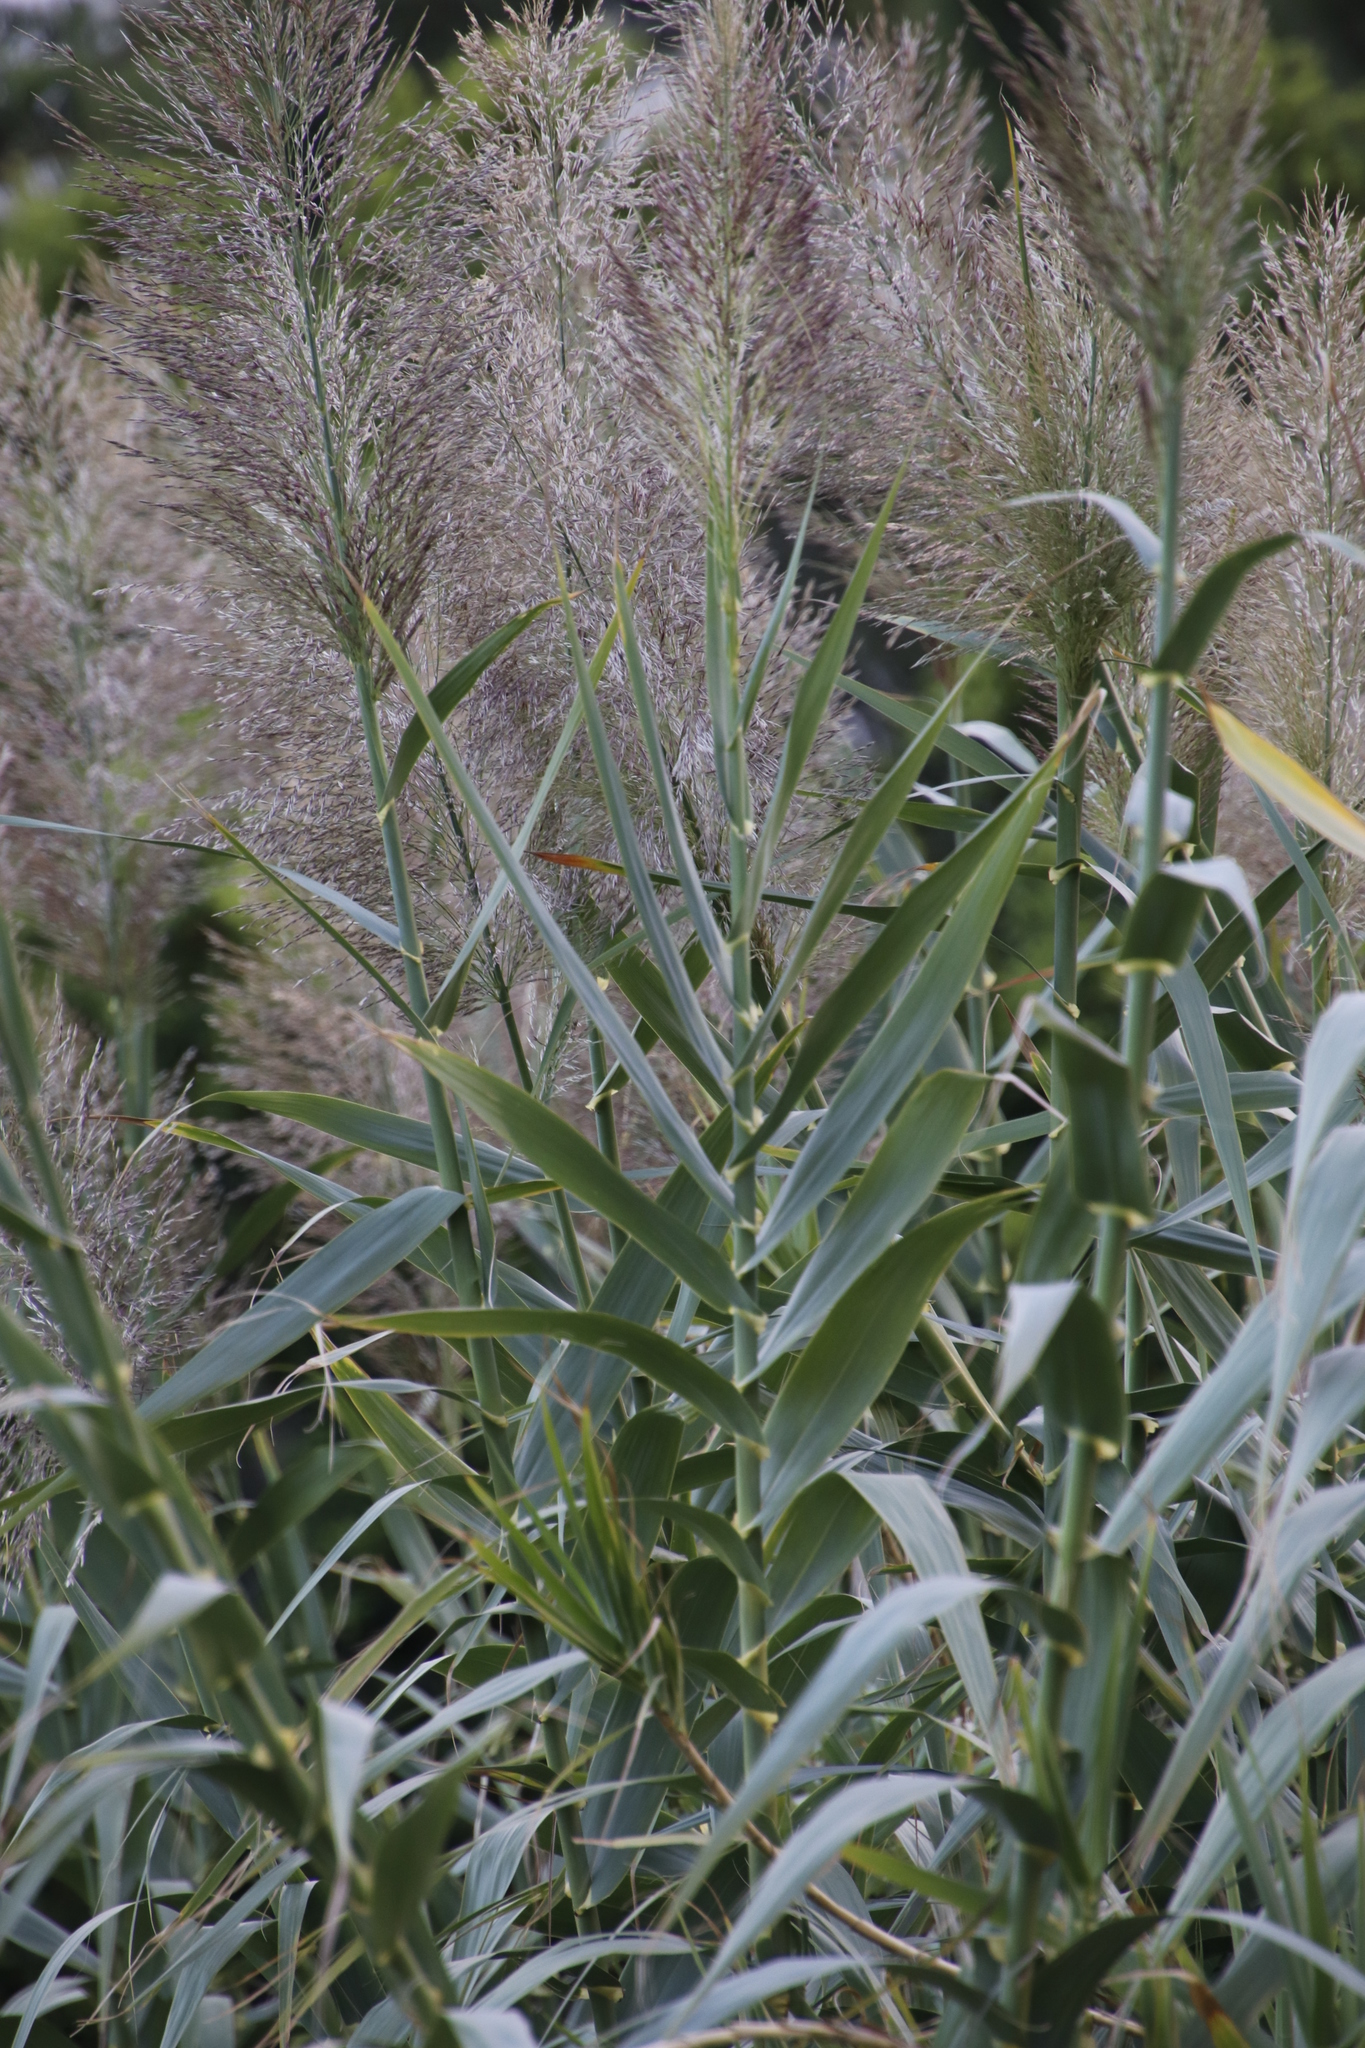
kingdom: Plantae
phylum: Tracheophyta
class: Liliopsida
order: Poales
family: Poaceae
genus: Arundo
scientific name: Arundo donax
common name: Giant reed
